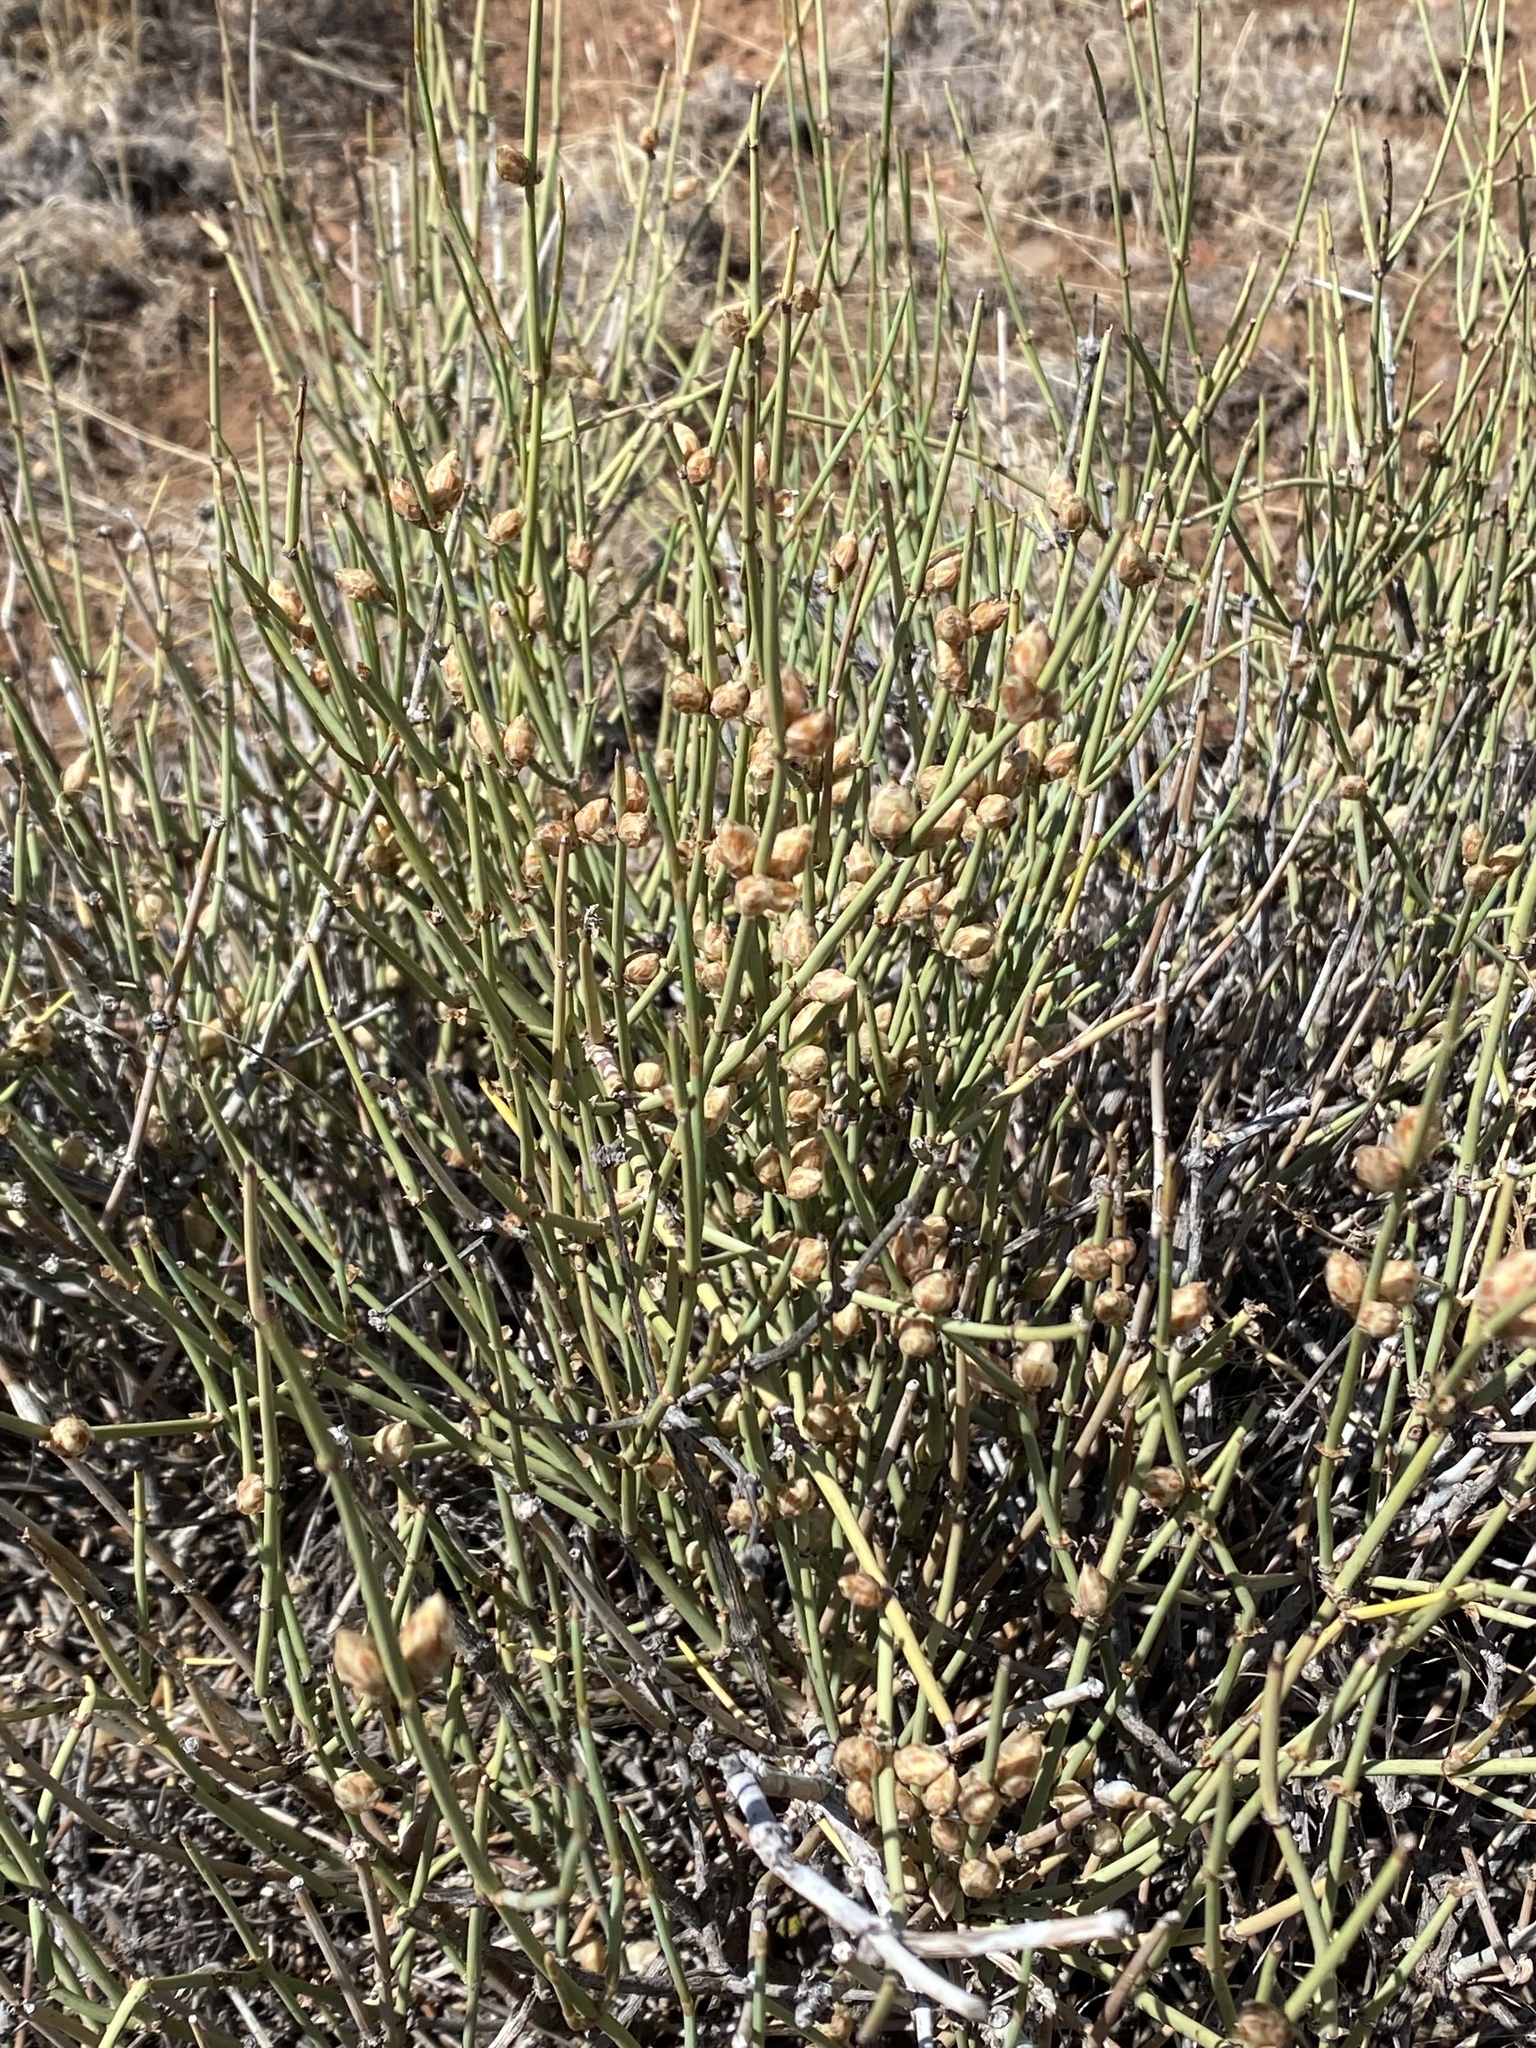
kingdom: Plantae
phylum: Tracheophyta
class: Gnetopsida
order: Ephedrales
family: Ephedraceae
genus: Ephedra
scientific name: Ephedra torreyana
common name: Torrey ephedra
